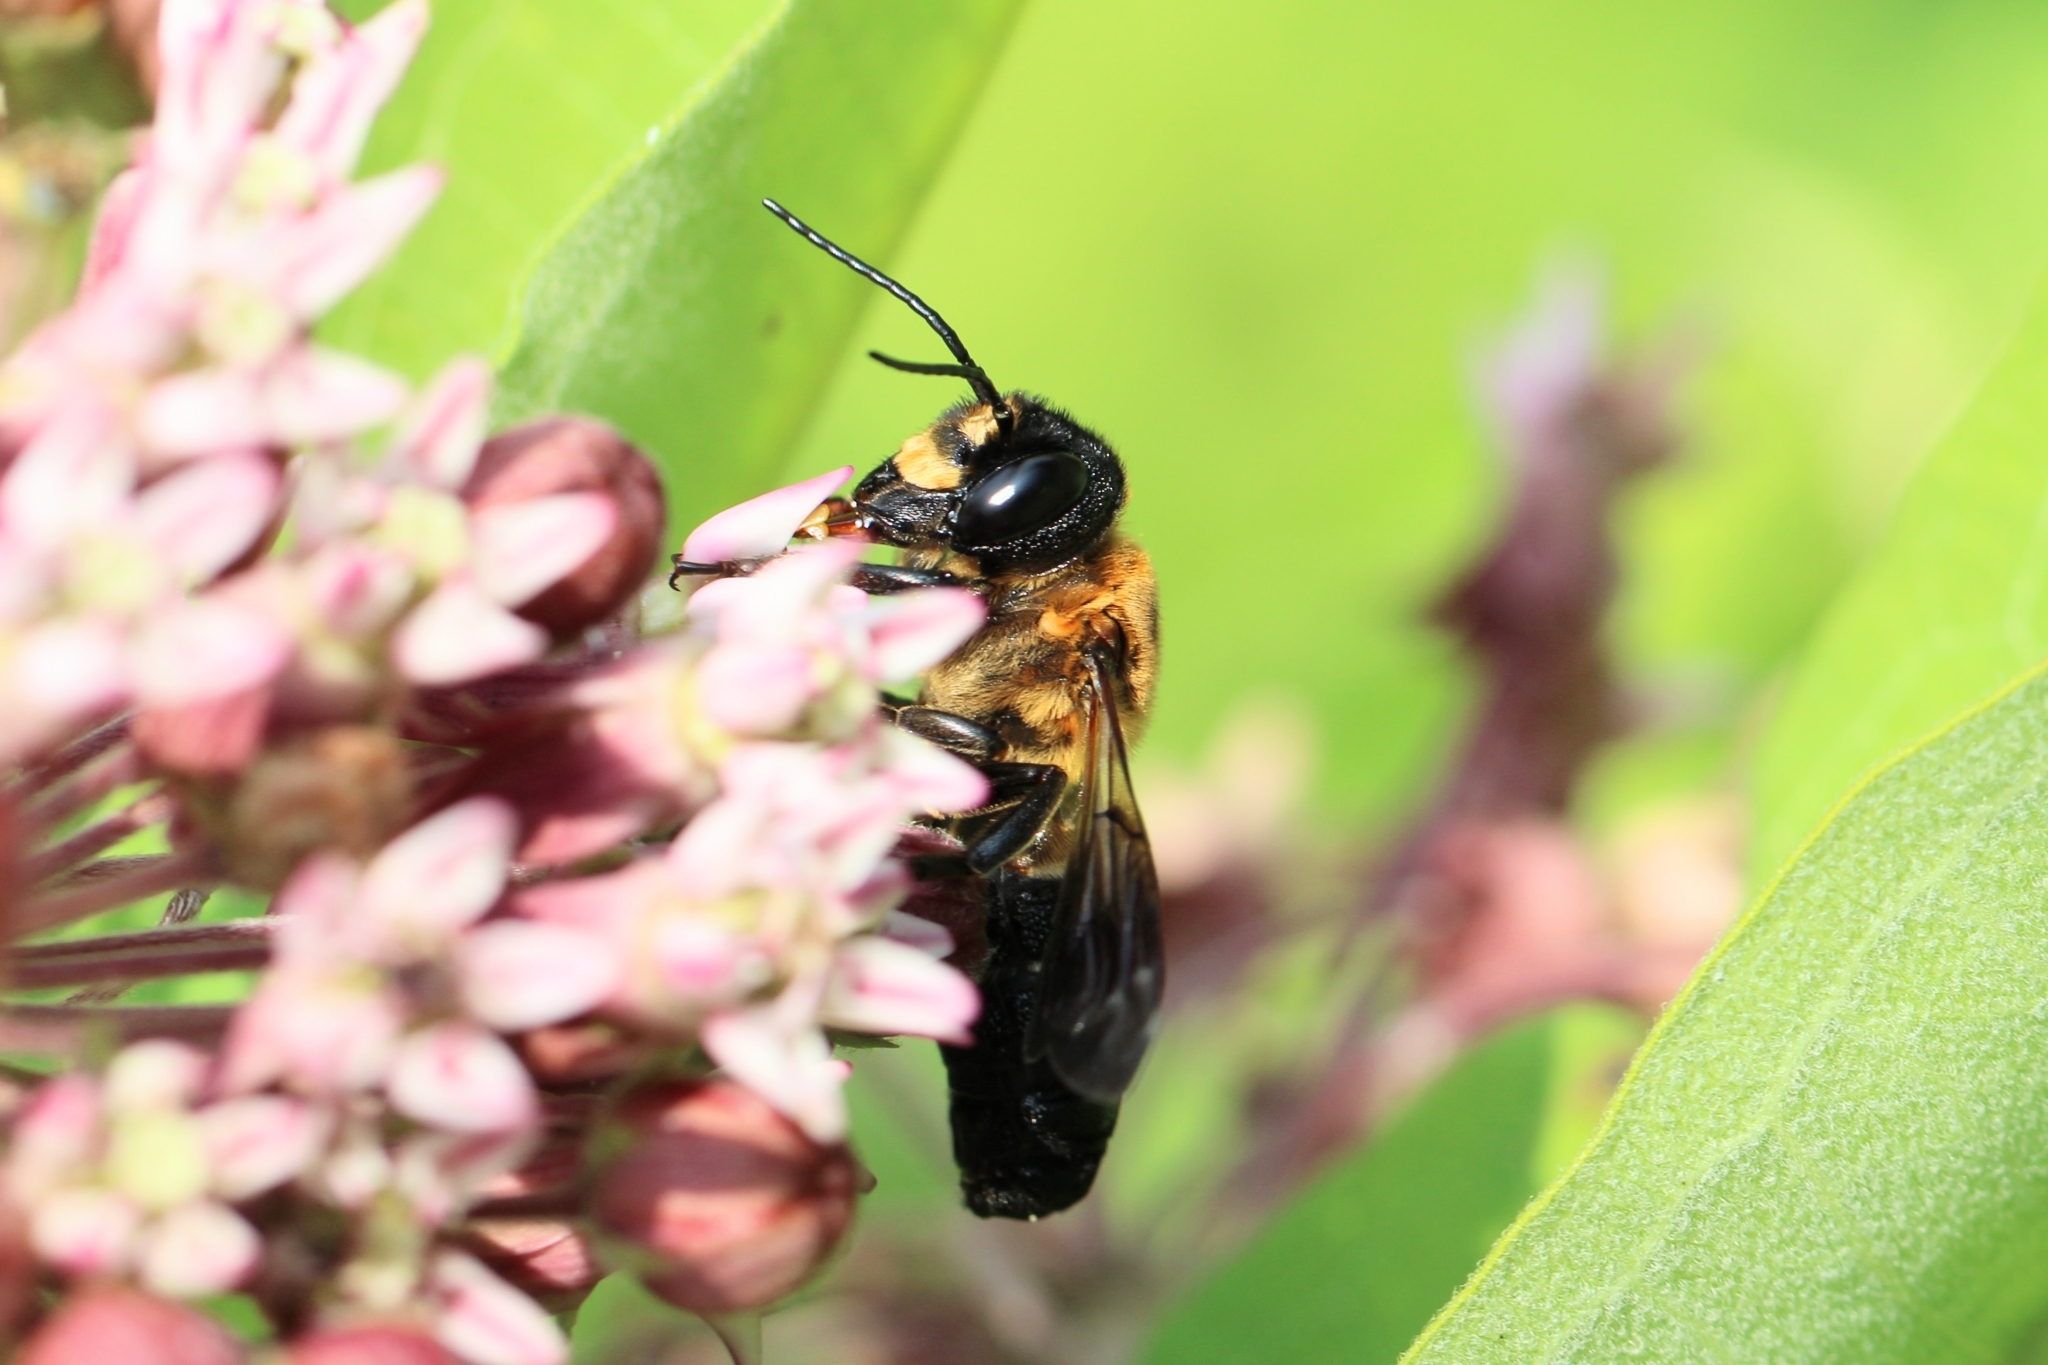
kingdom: Animalia
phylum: Arthropoda
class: Insecta
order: Hymenoptera
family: Megachilidae
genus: Megachile
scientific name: Megachile sculpturalis
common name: Sculptured resin bee
